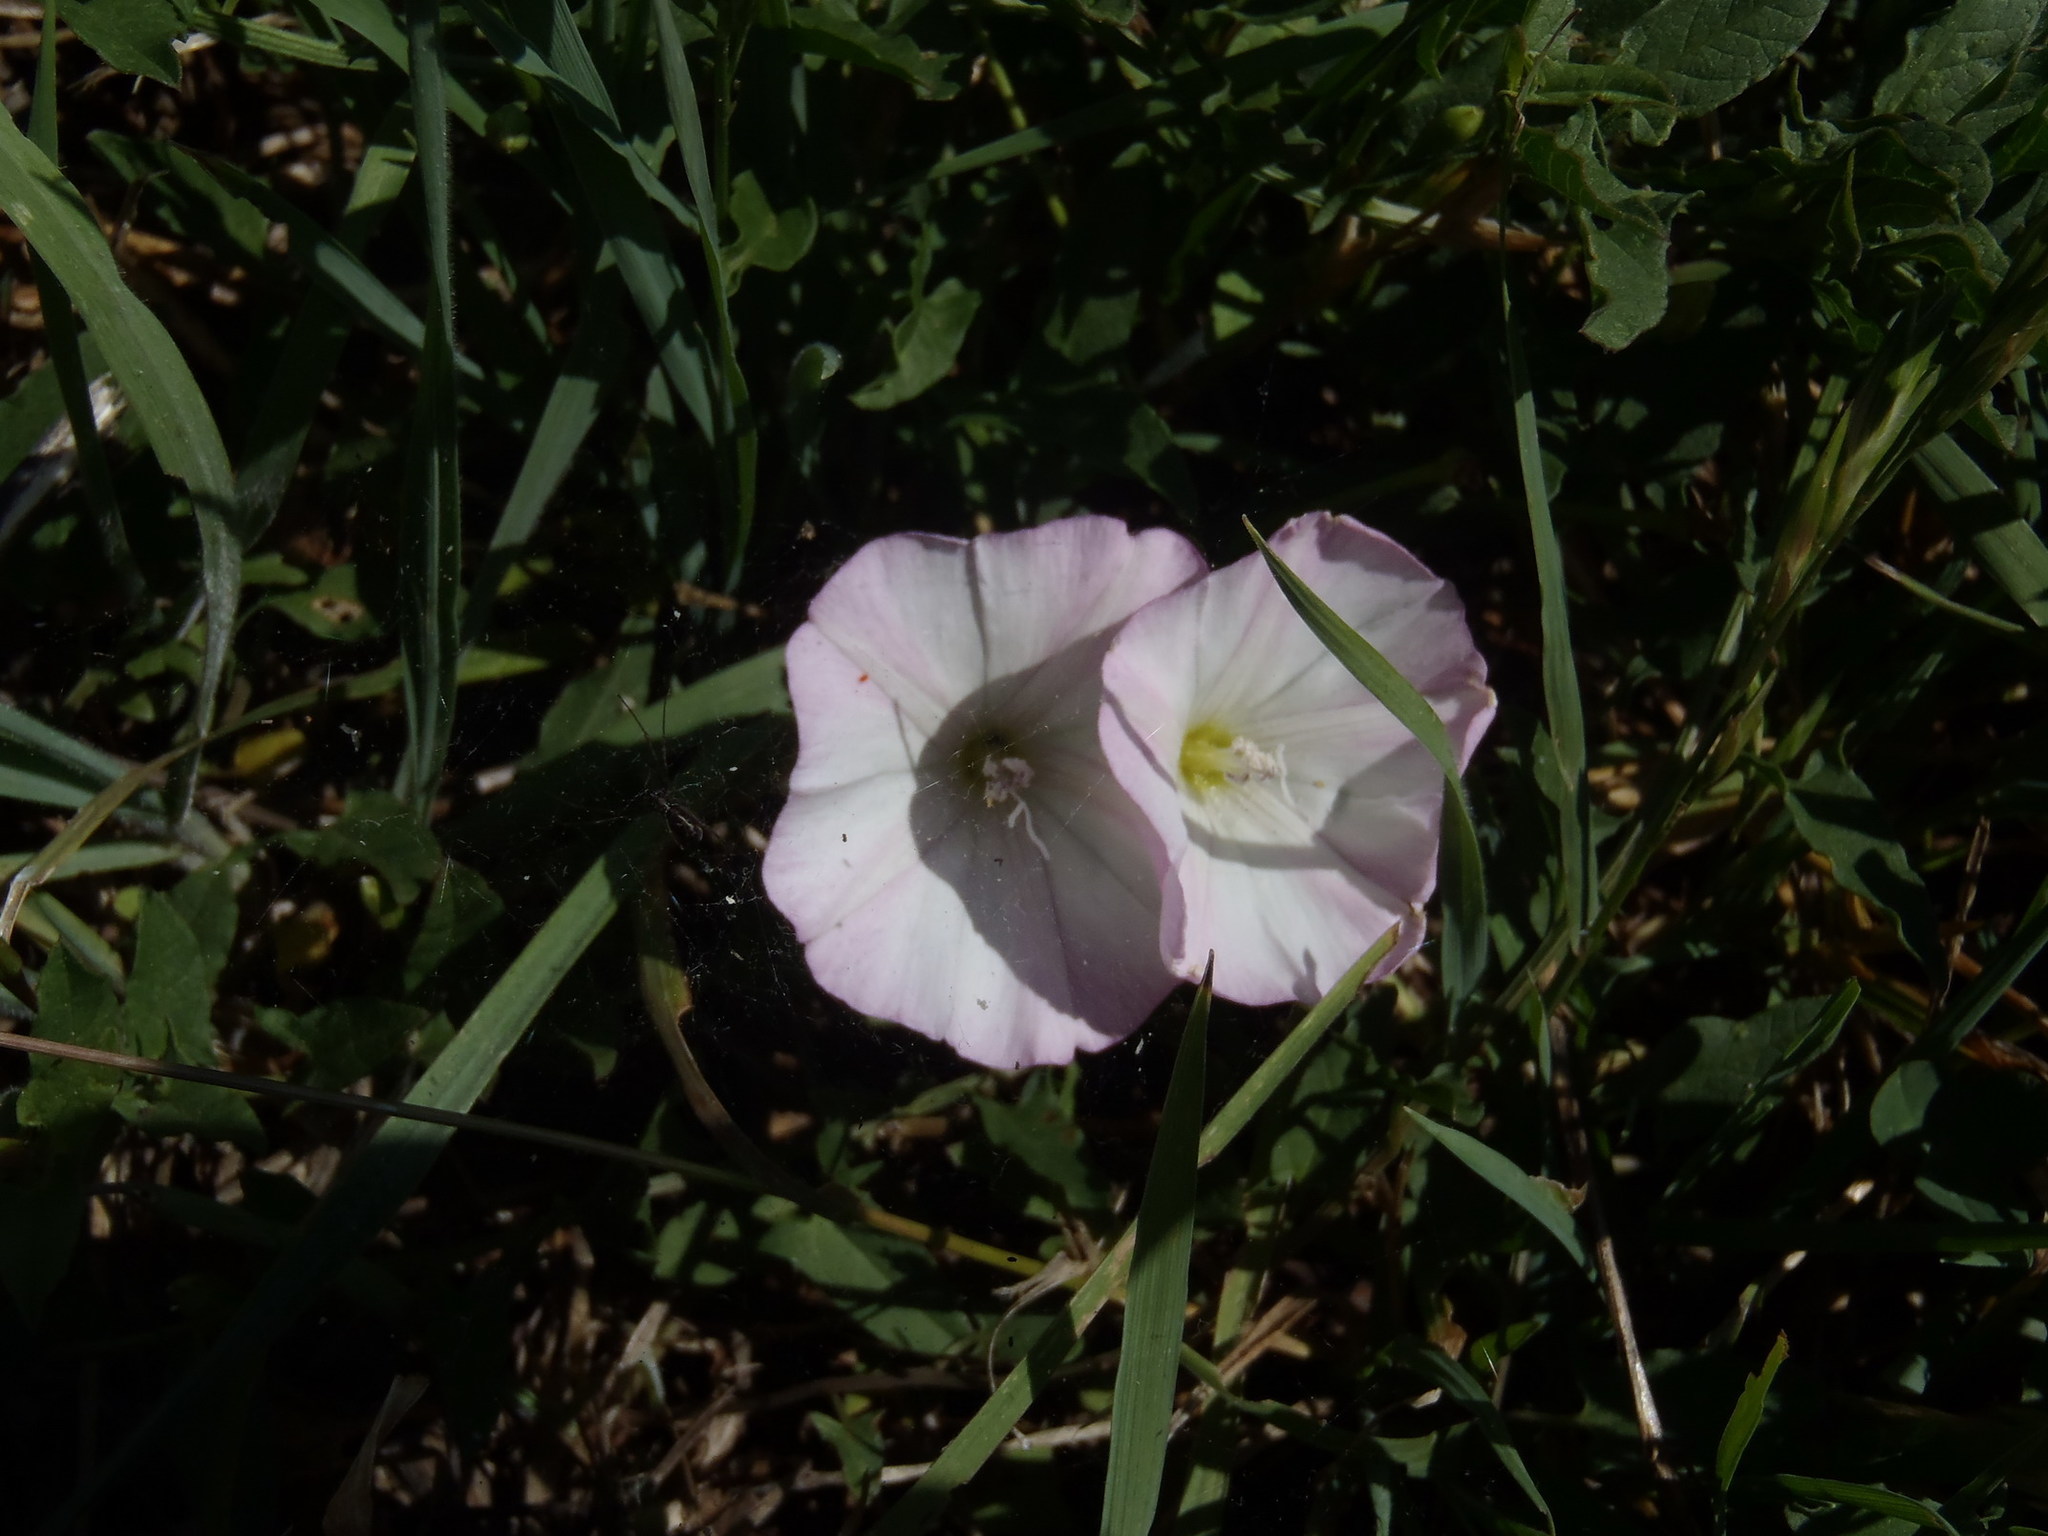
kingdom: Plantae
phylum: Tracheophyta
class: Magnoliopsida
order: Solanales
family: Convolvulaceae
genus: Convolvulus
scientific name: Convolvulus arvensis
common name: Field bindweed
